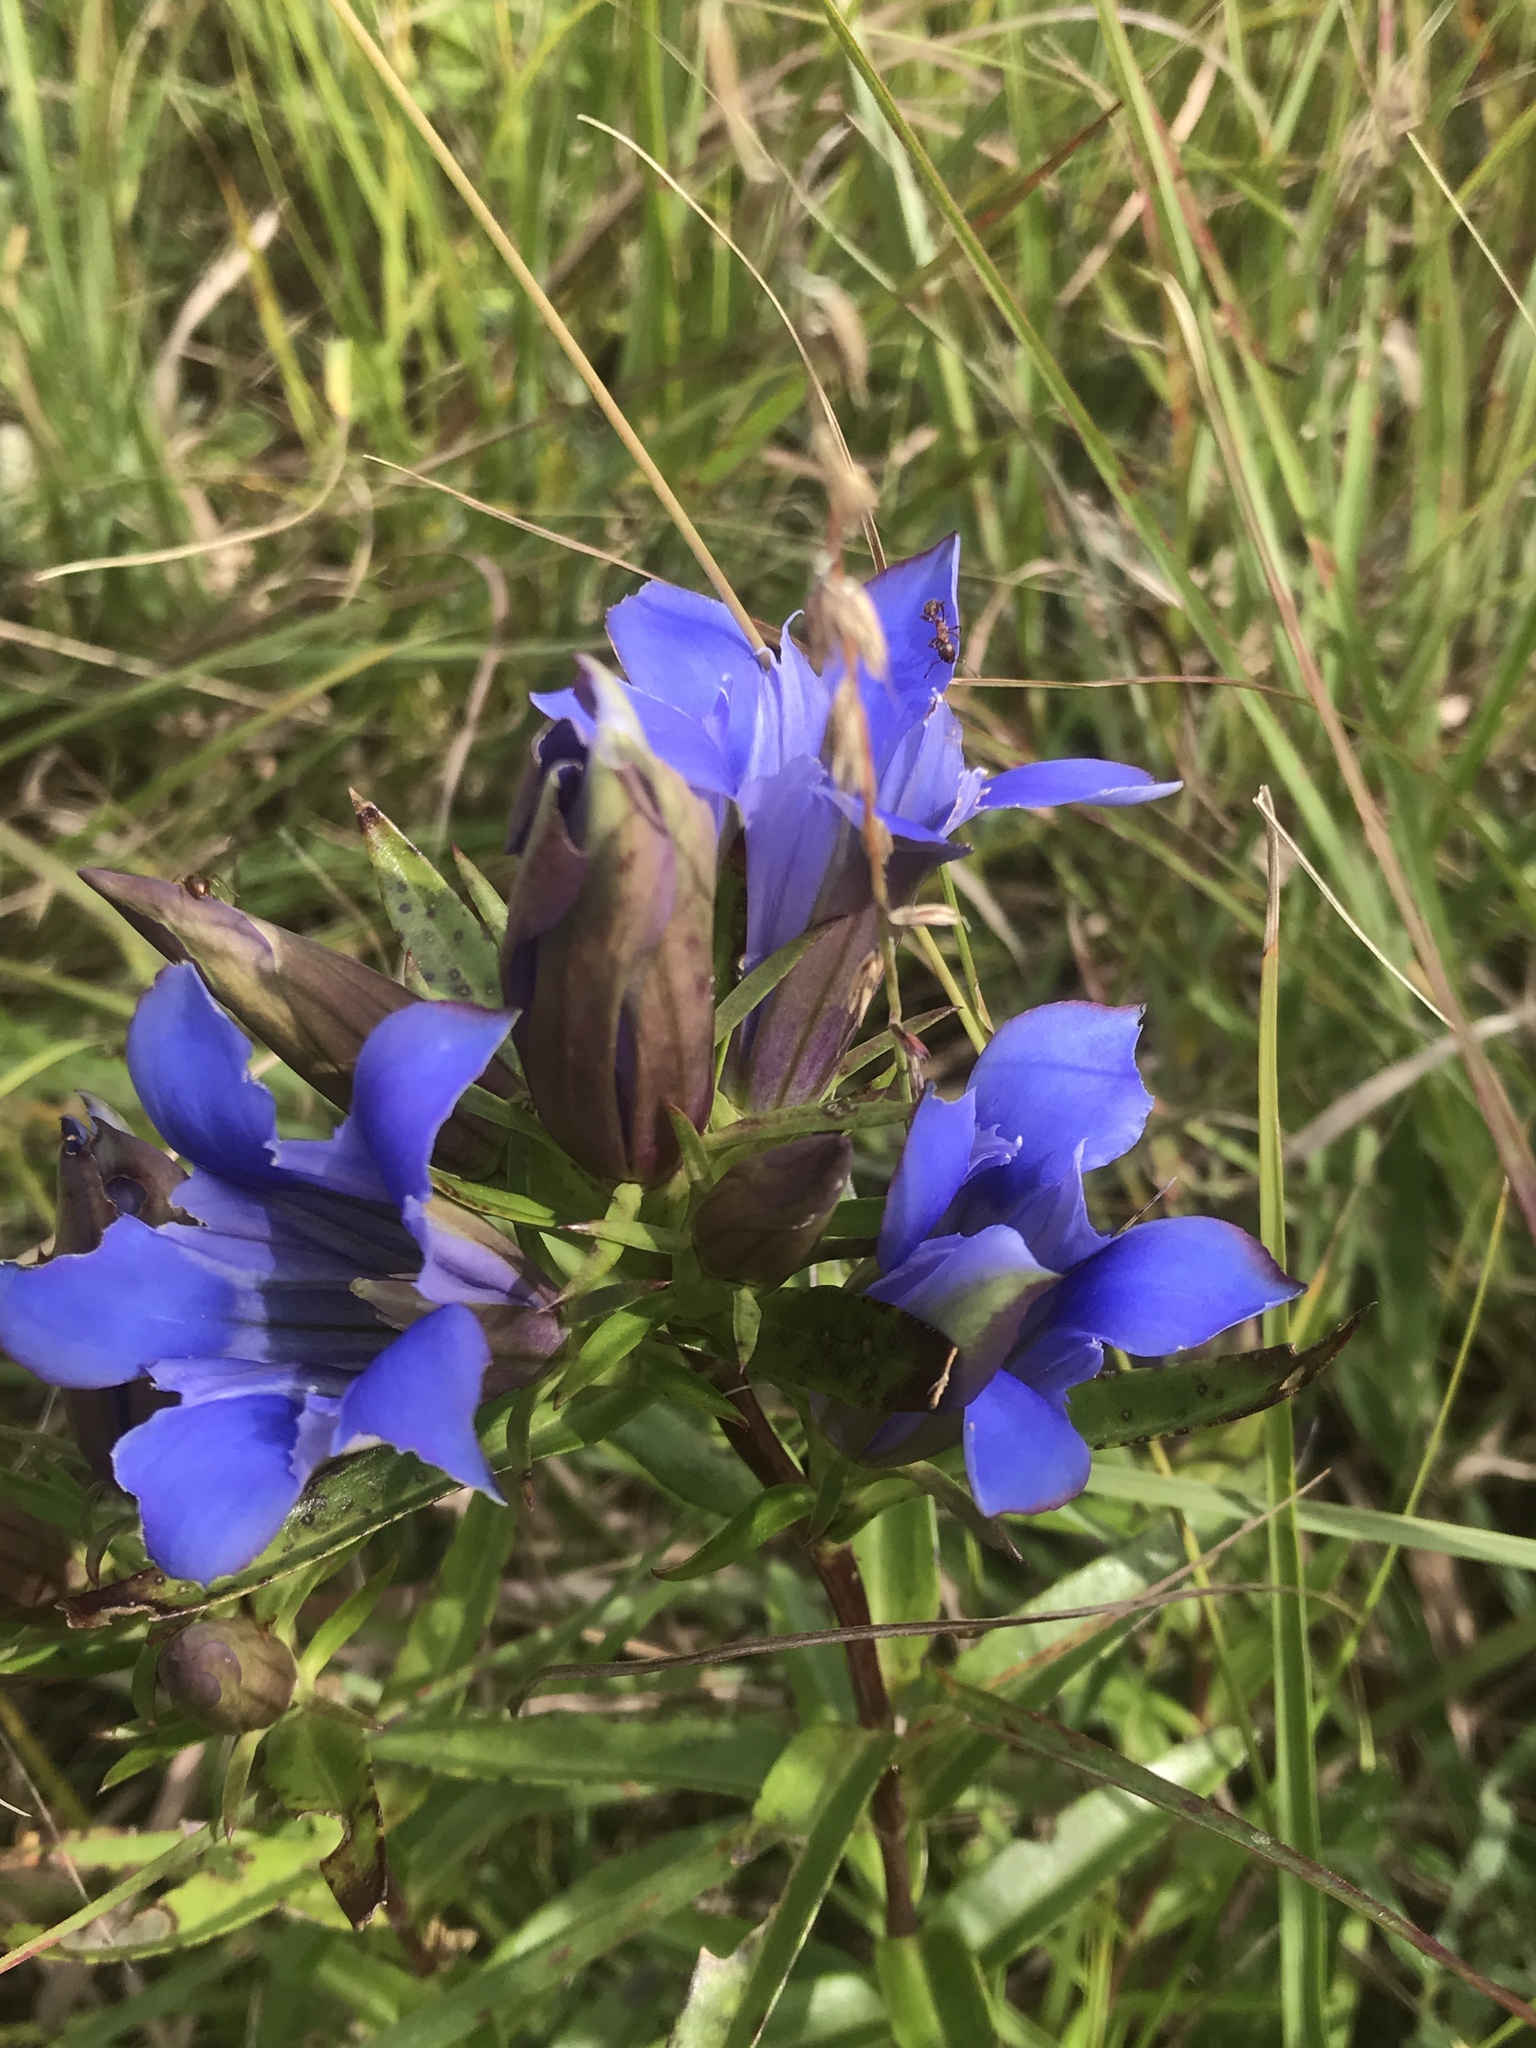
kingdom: Plantae
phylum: Tracheophyta
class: Magnoliopsida
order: Gentianales
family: Gentianaceae
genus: Gentiana
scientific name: Gentiana puberulenta
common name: Downy gentian
